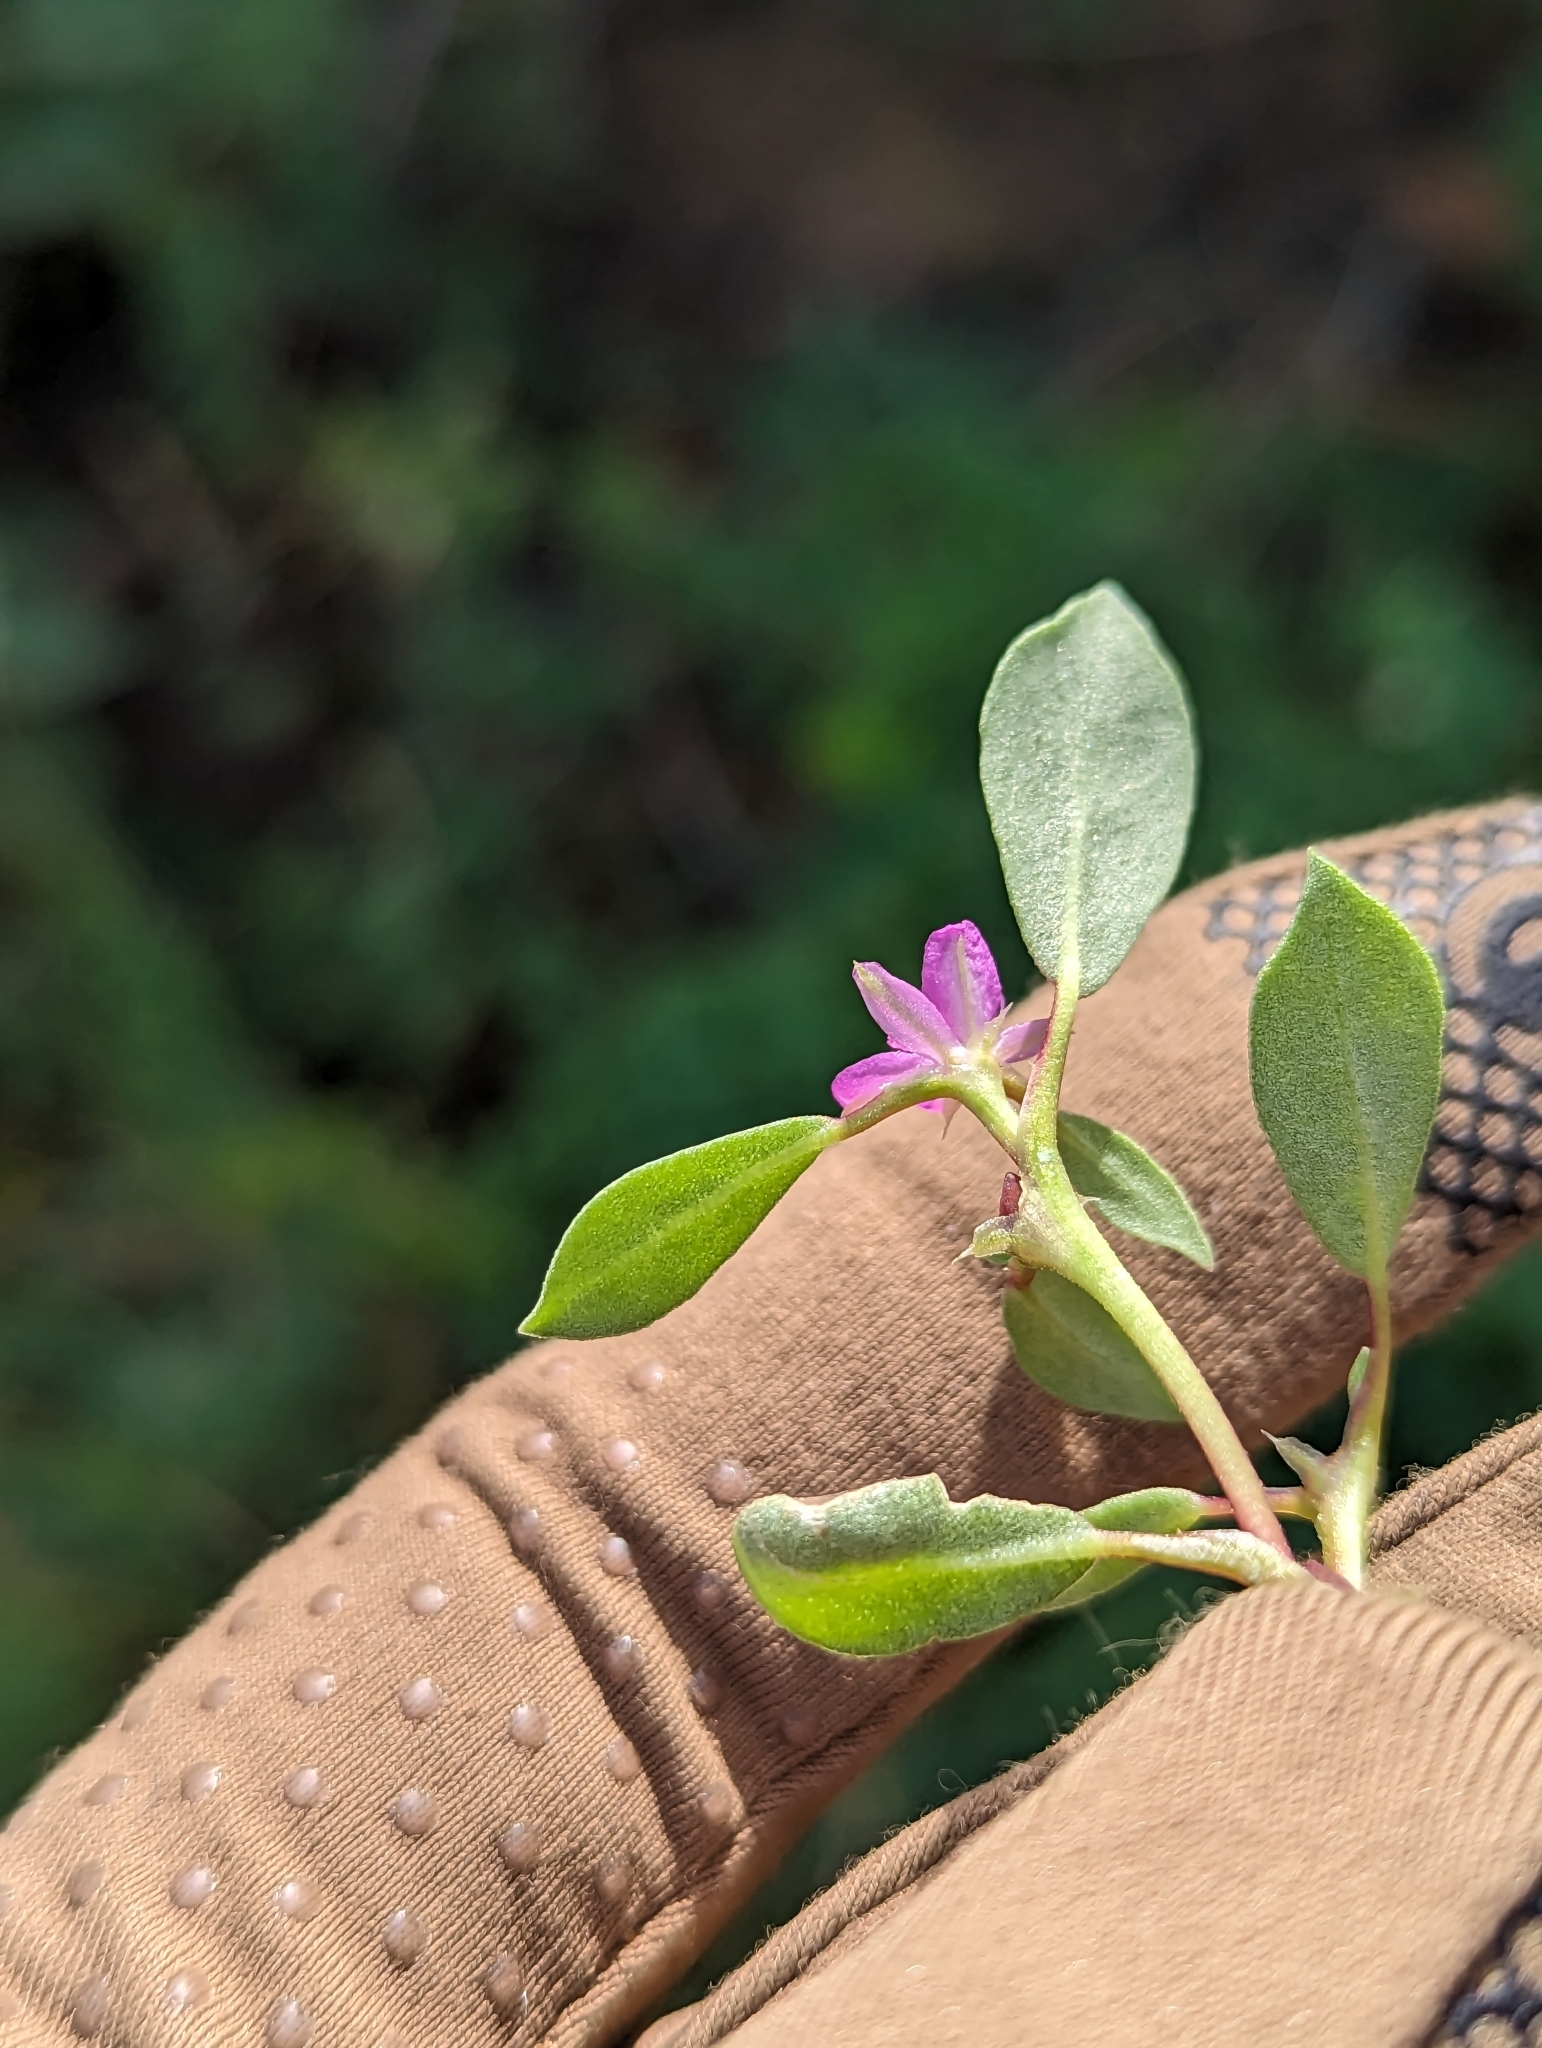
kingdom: Plantae
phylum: Tracheophyta
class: Magnoliopsida
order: Caryophyllales
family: Aizoaceae
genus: Trianthema
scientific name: Trianthema portulacastrum
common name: Desert horsepurslane
